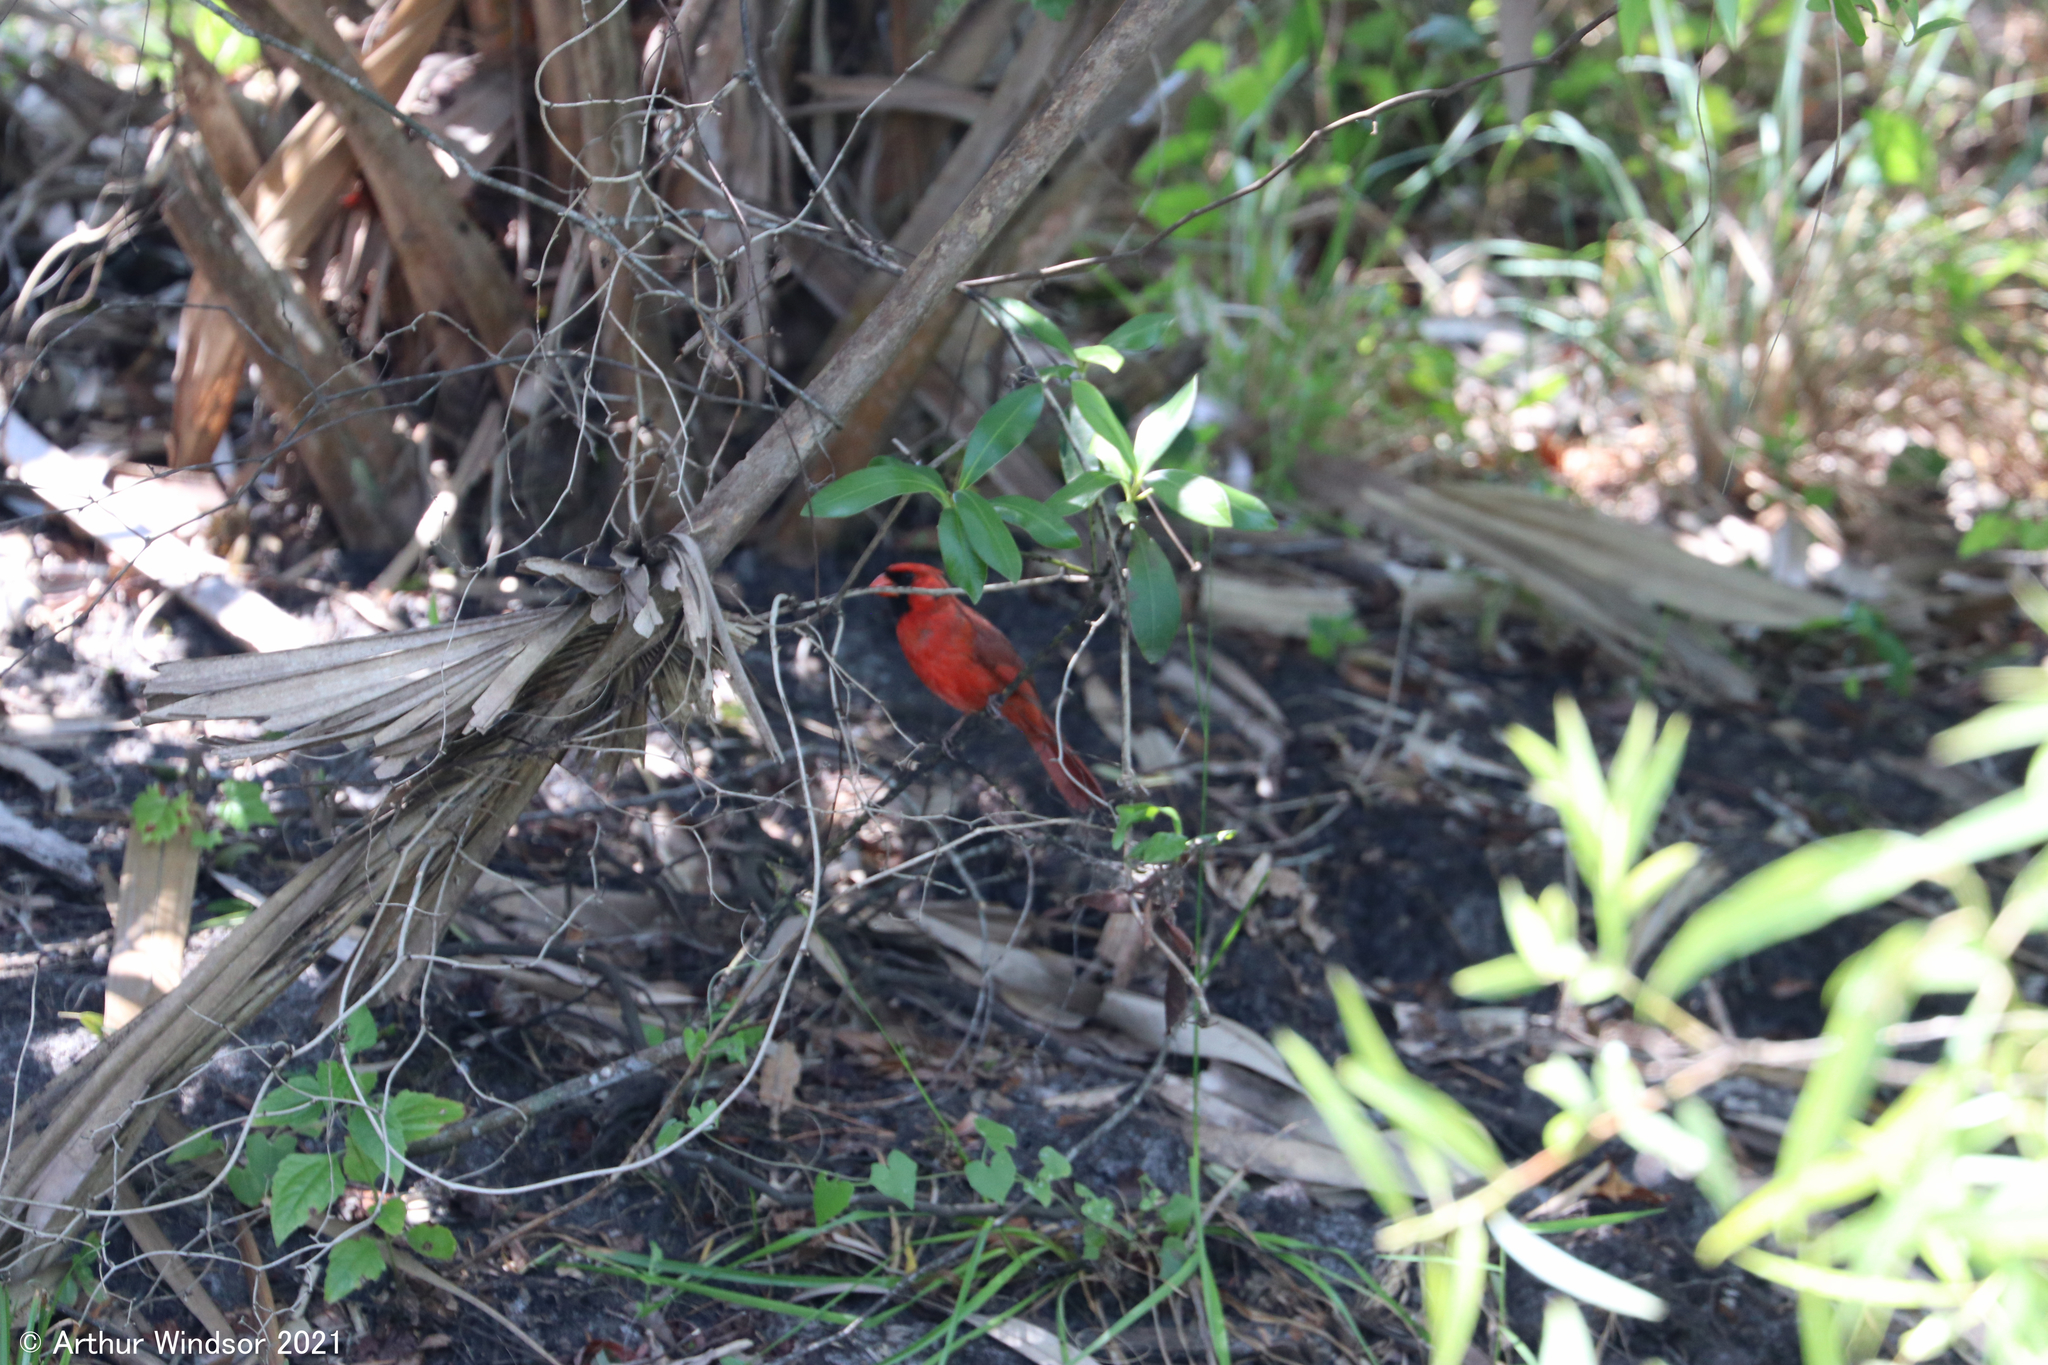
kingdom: Animalia
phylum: Chordata
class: Aves
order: Passeriformes
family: Cardinalidae
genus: Cardinalis
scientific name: Cardinalis cardinalis
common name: Northern cardinal
